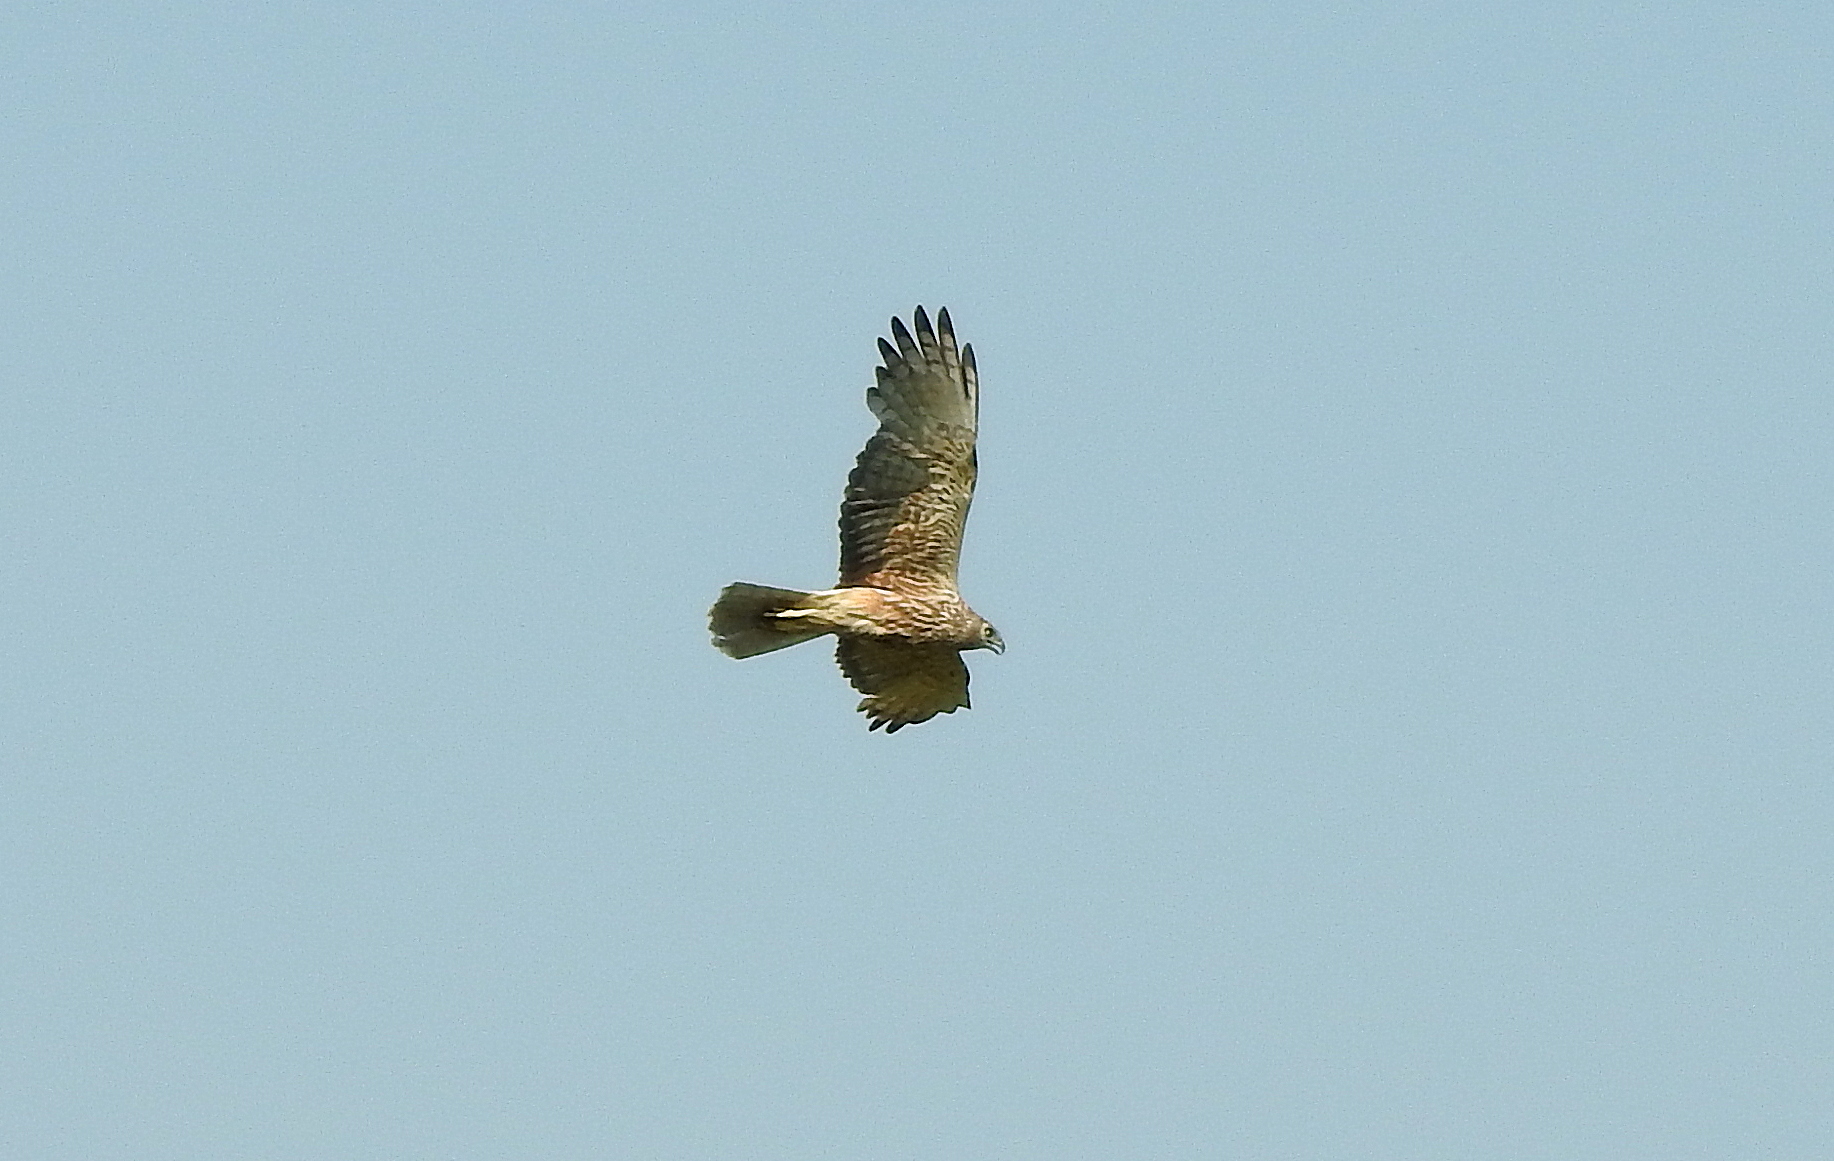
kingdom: Animalia
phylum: Chordata
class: Aves
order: Accipitriformes
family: Accipitridae
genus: Circus
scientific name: Circus spilonotus
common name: Eastern marsh-harrier
